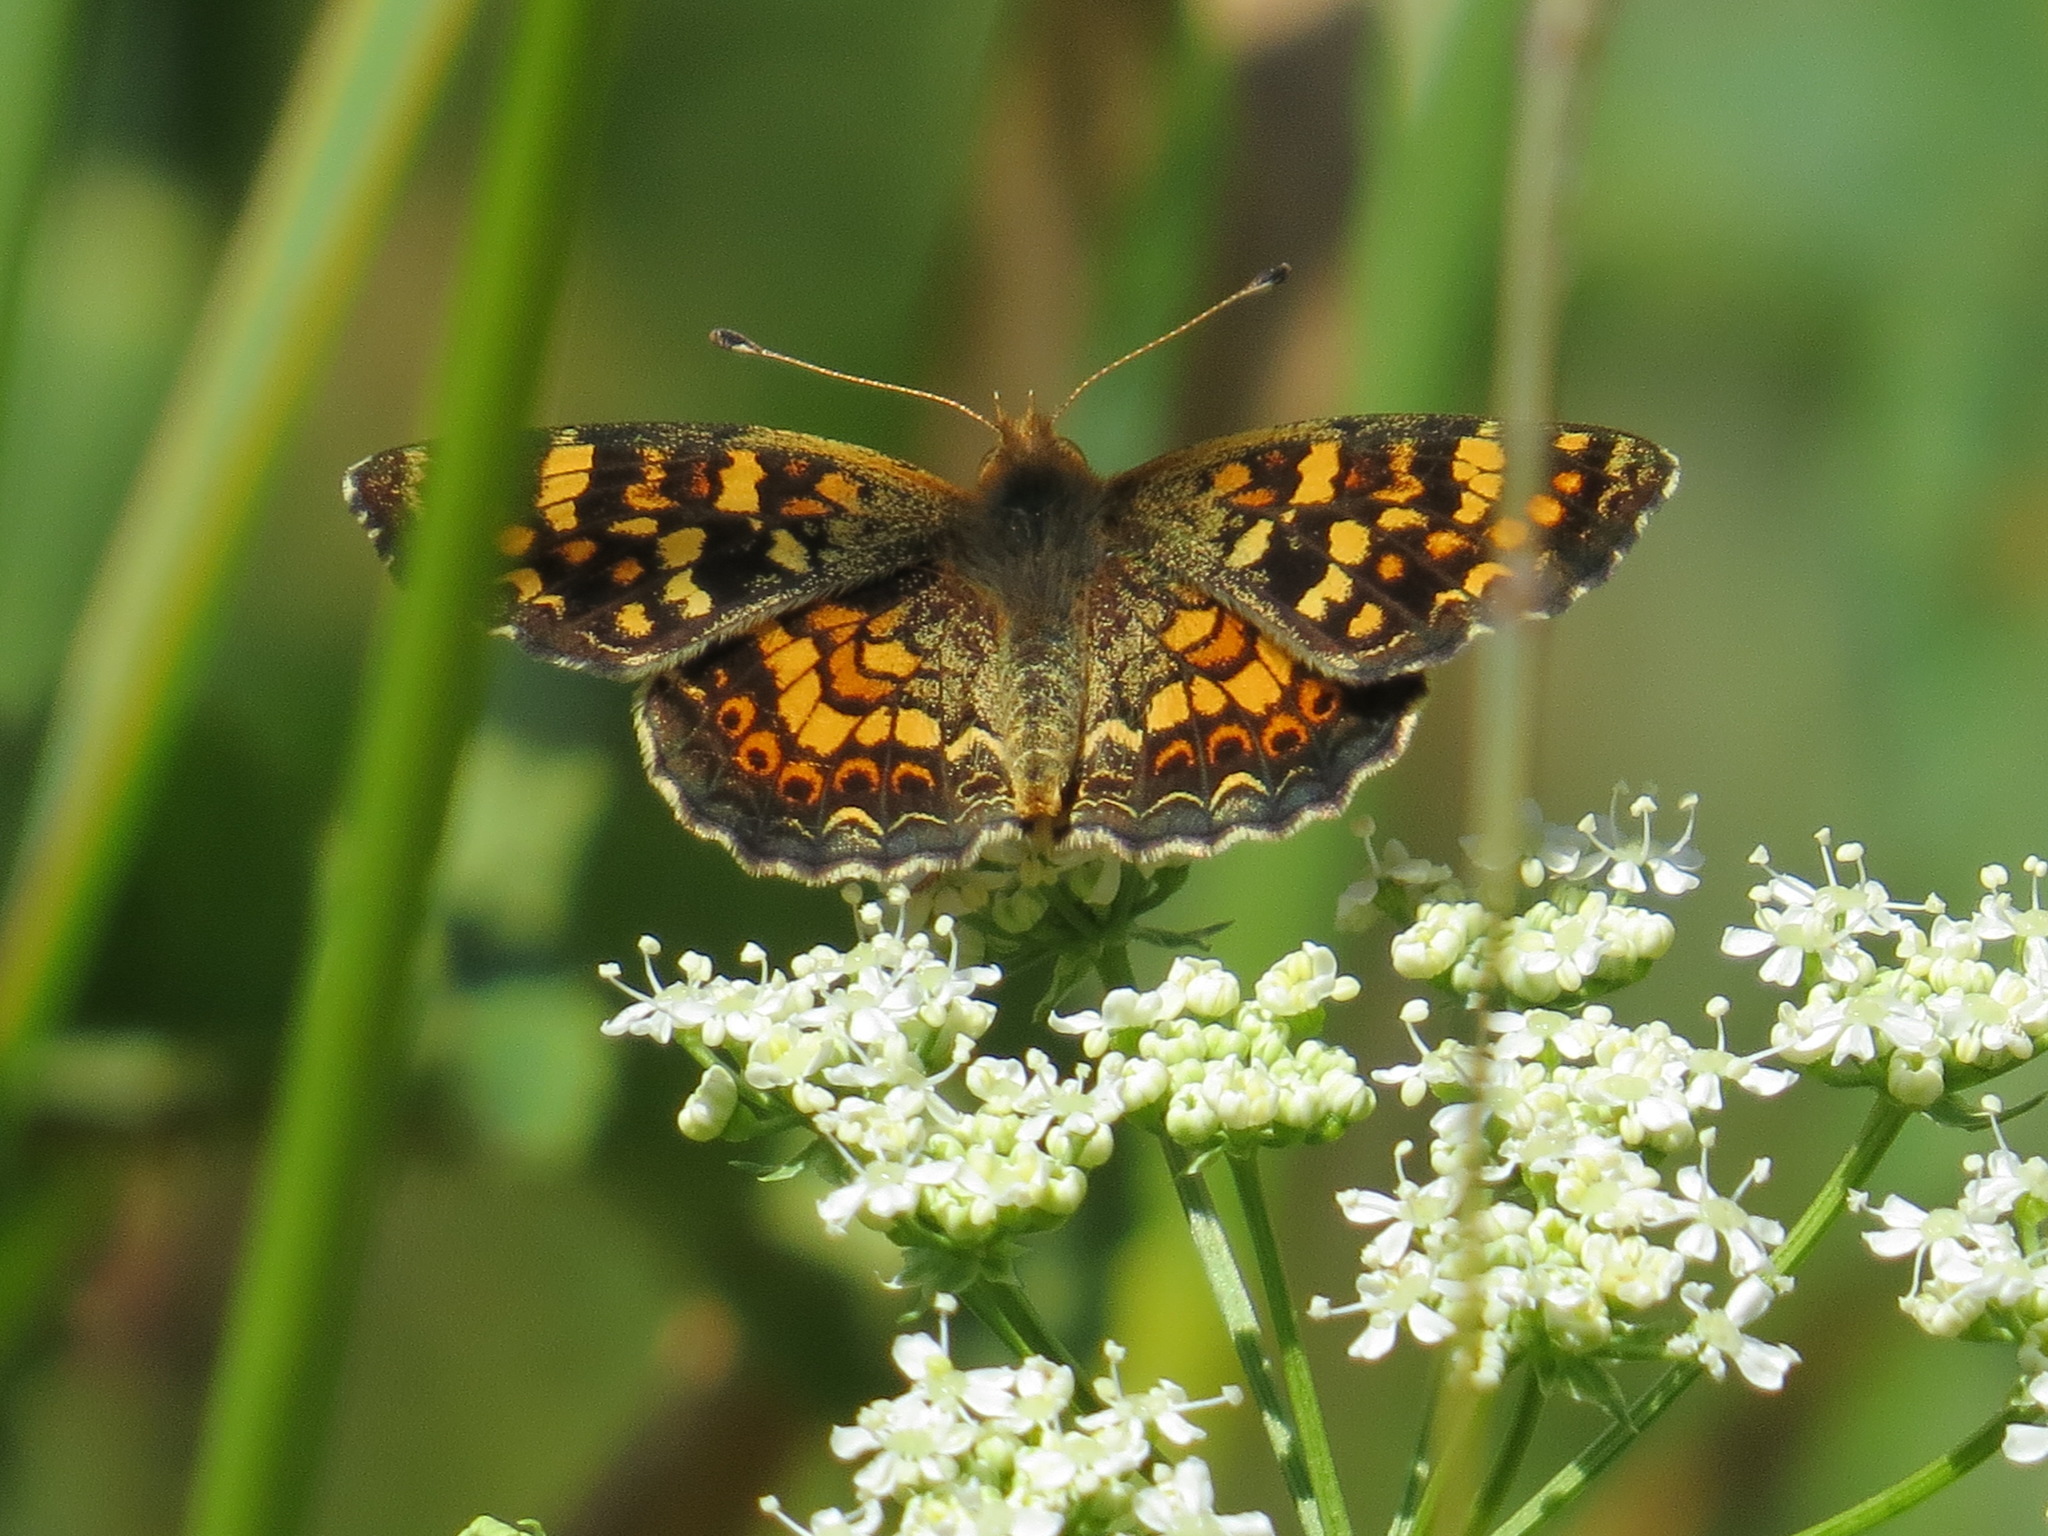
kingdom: Animalia
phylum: Arthropoda
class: Insecta
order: Lepidoptera
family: Nymphalidae
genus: Phyciodes
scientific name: Phyciodes tharos
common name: Pearl crescent
